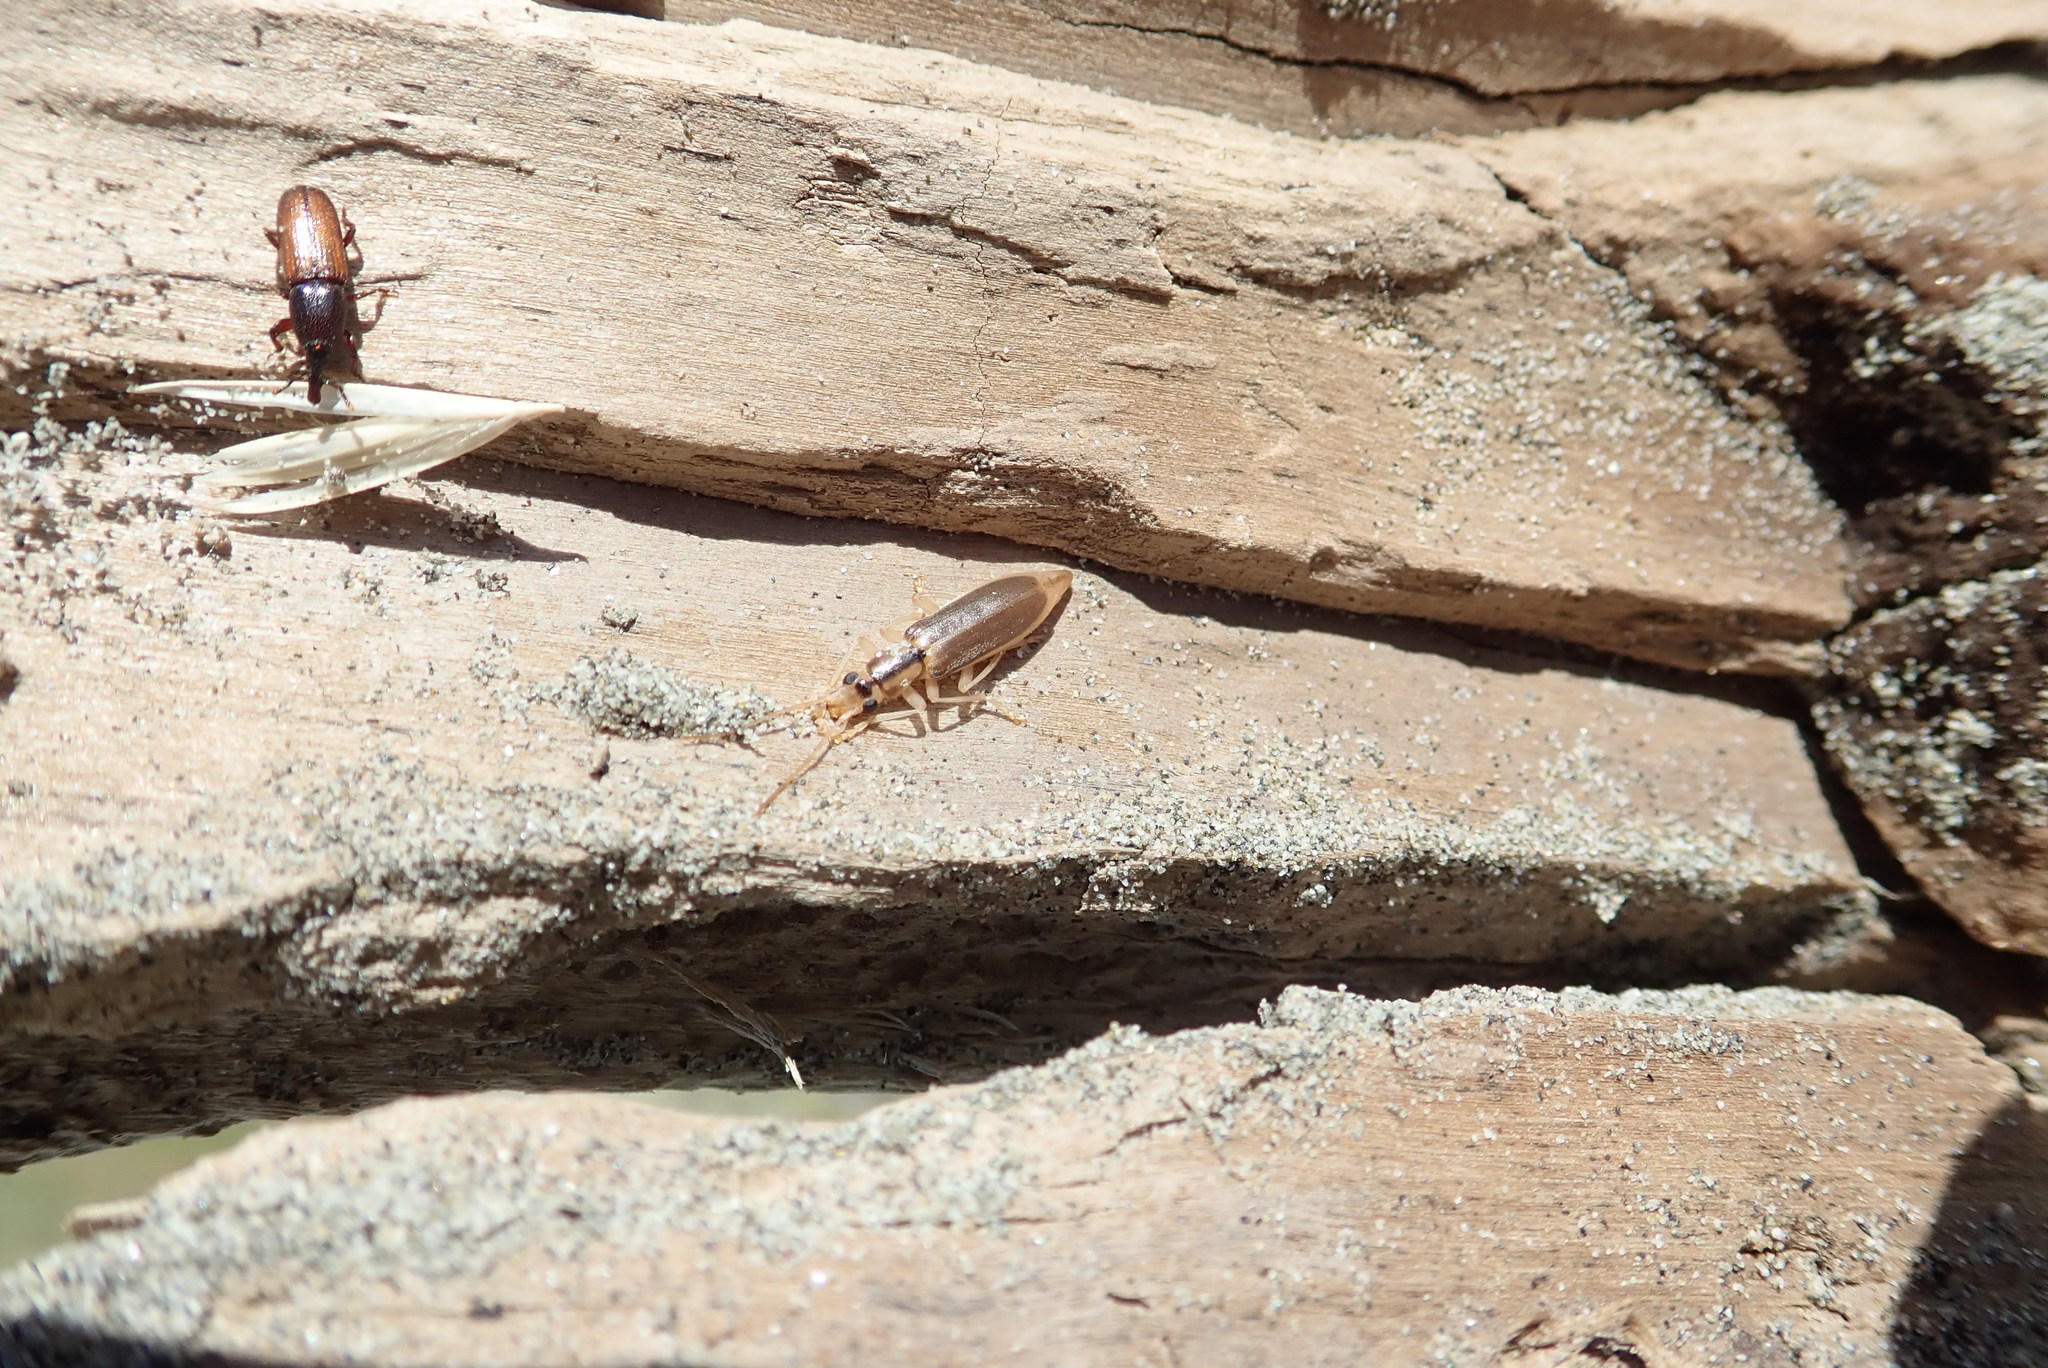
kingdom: Animalia
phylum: Arthropoda
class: Insecta
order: Coleoptera
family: Curculionidae
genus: Mesites
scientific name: Mesites pallidipennis
